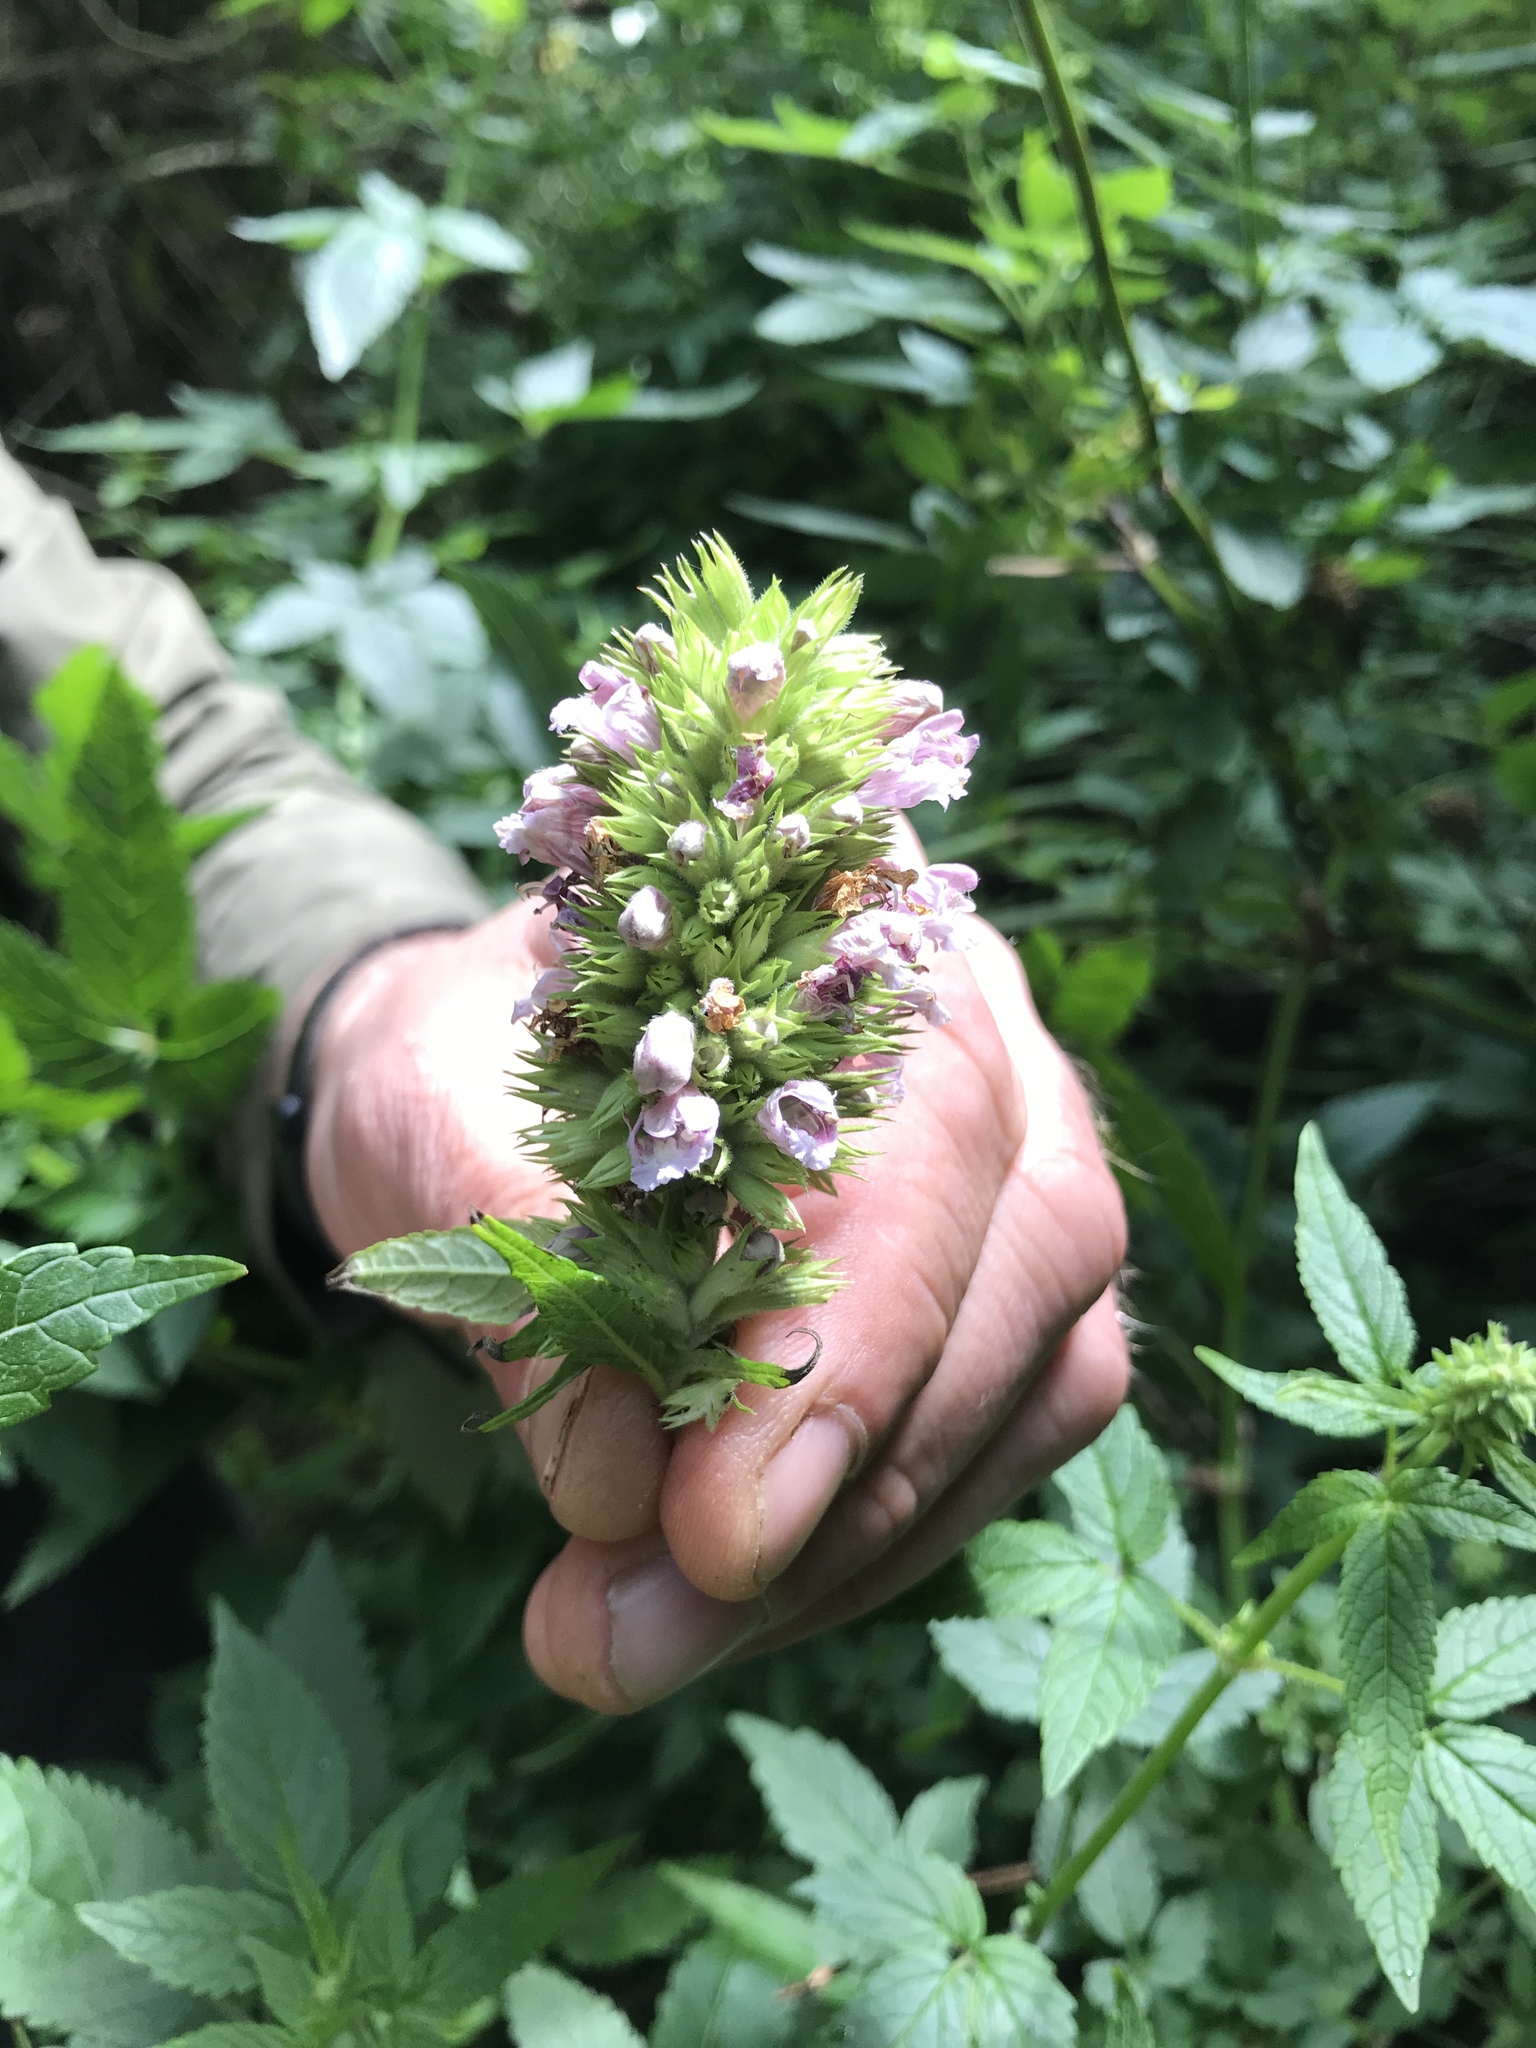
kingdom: Plantae
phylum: Tracheophyta
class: Magnoliopsida
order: Lamiales
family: Lamiaceae
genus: Cedronella
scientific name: Cedronella canariensis
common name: Canary islands balm
